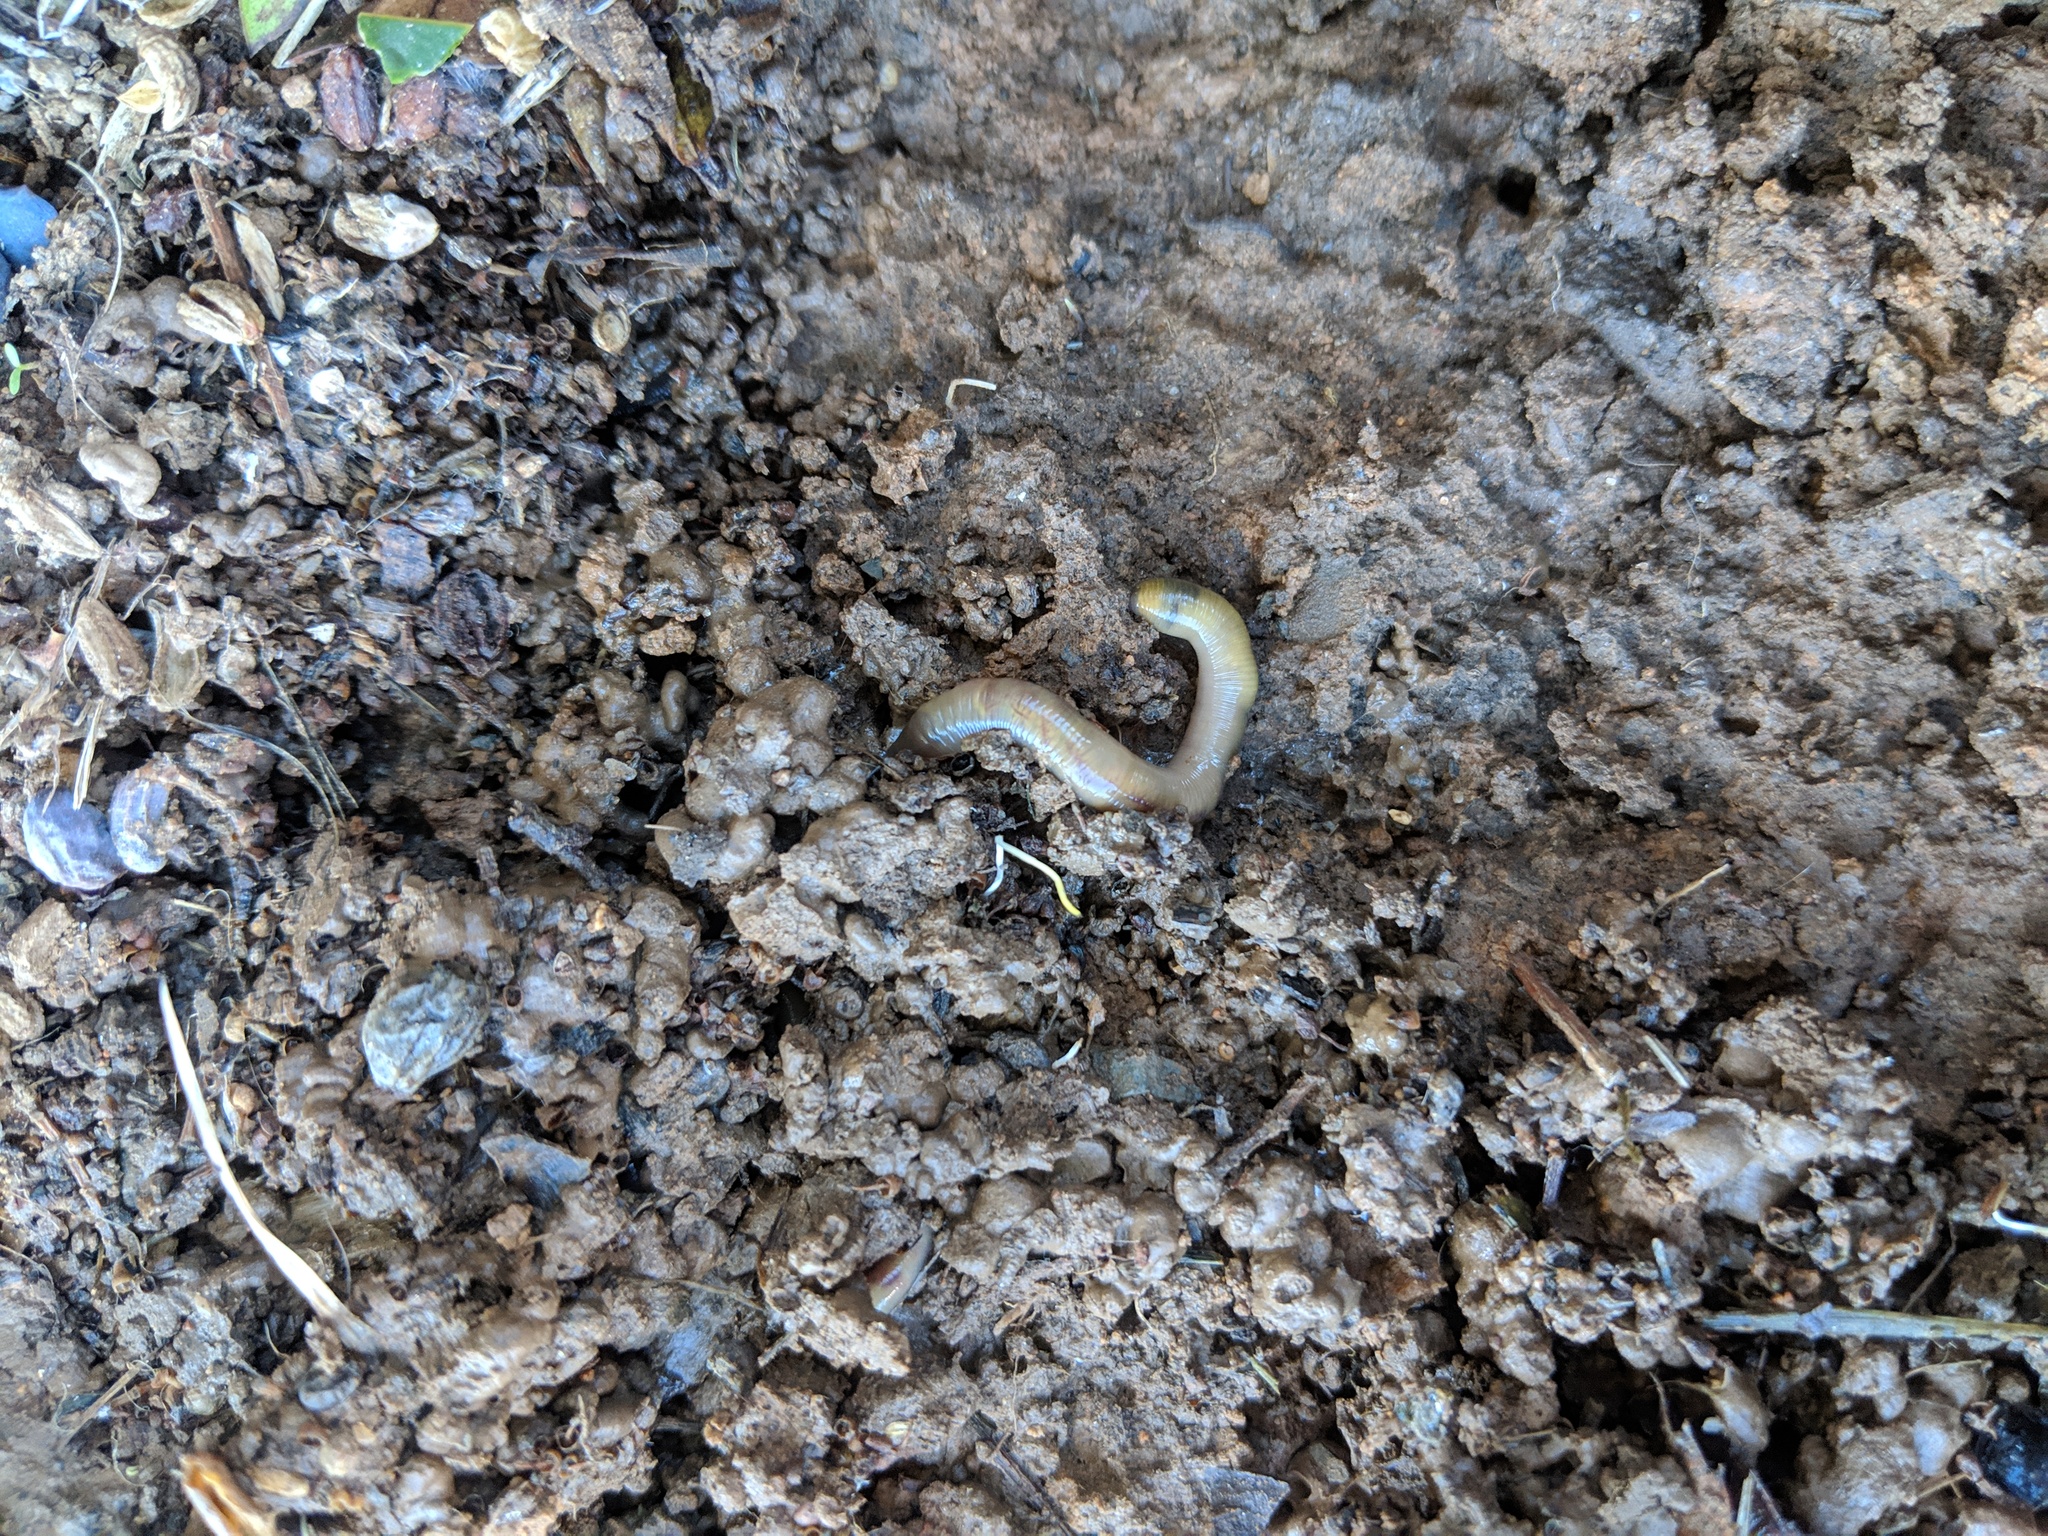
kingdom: Animalia
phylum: Annelida
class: Clitellata
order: Crassiclitellata
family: Lumbricidae
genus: Lumbricus
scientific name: Lumbricus terrestris
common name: Common earthworm
